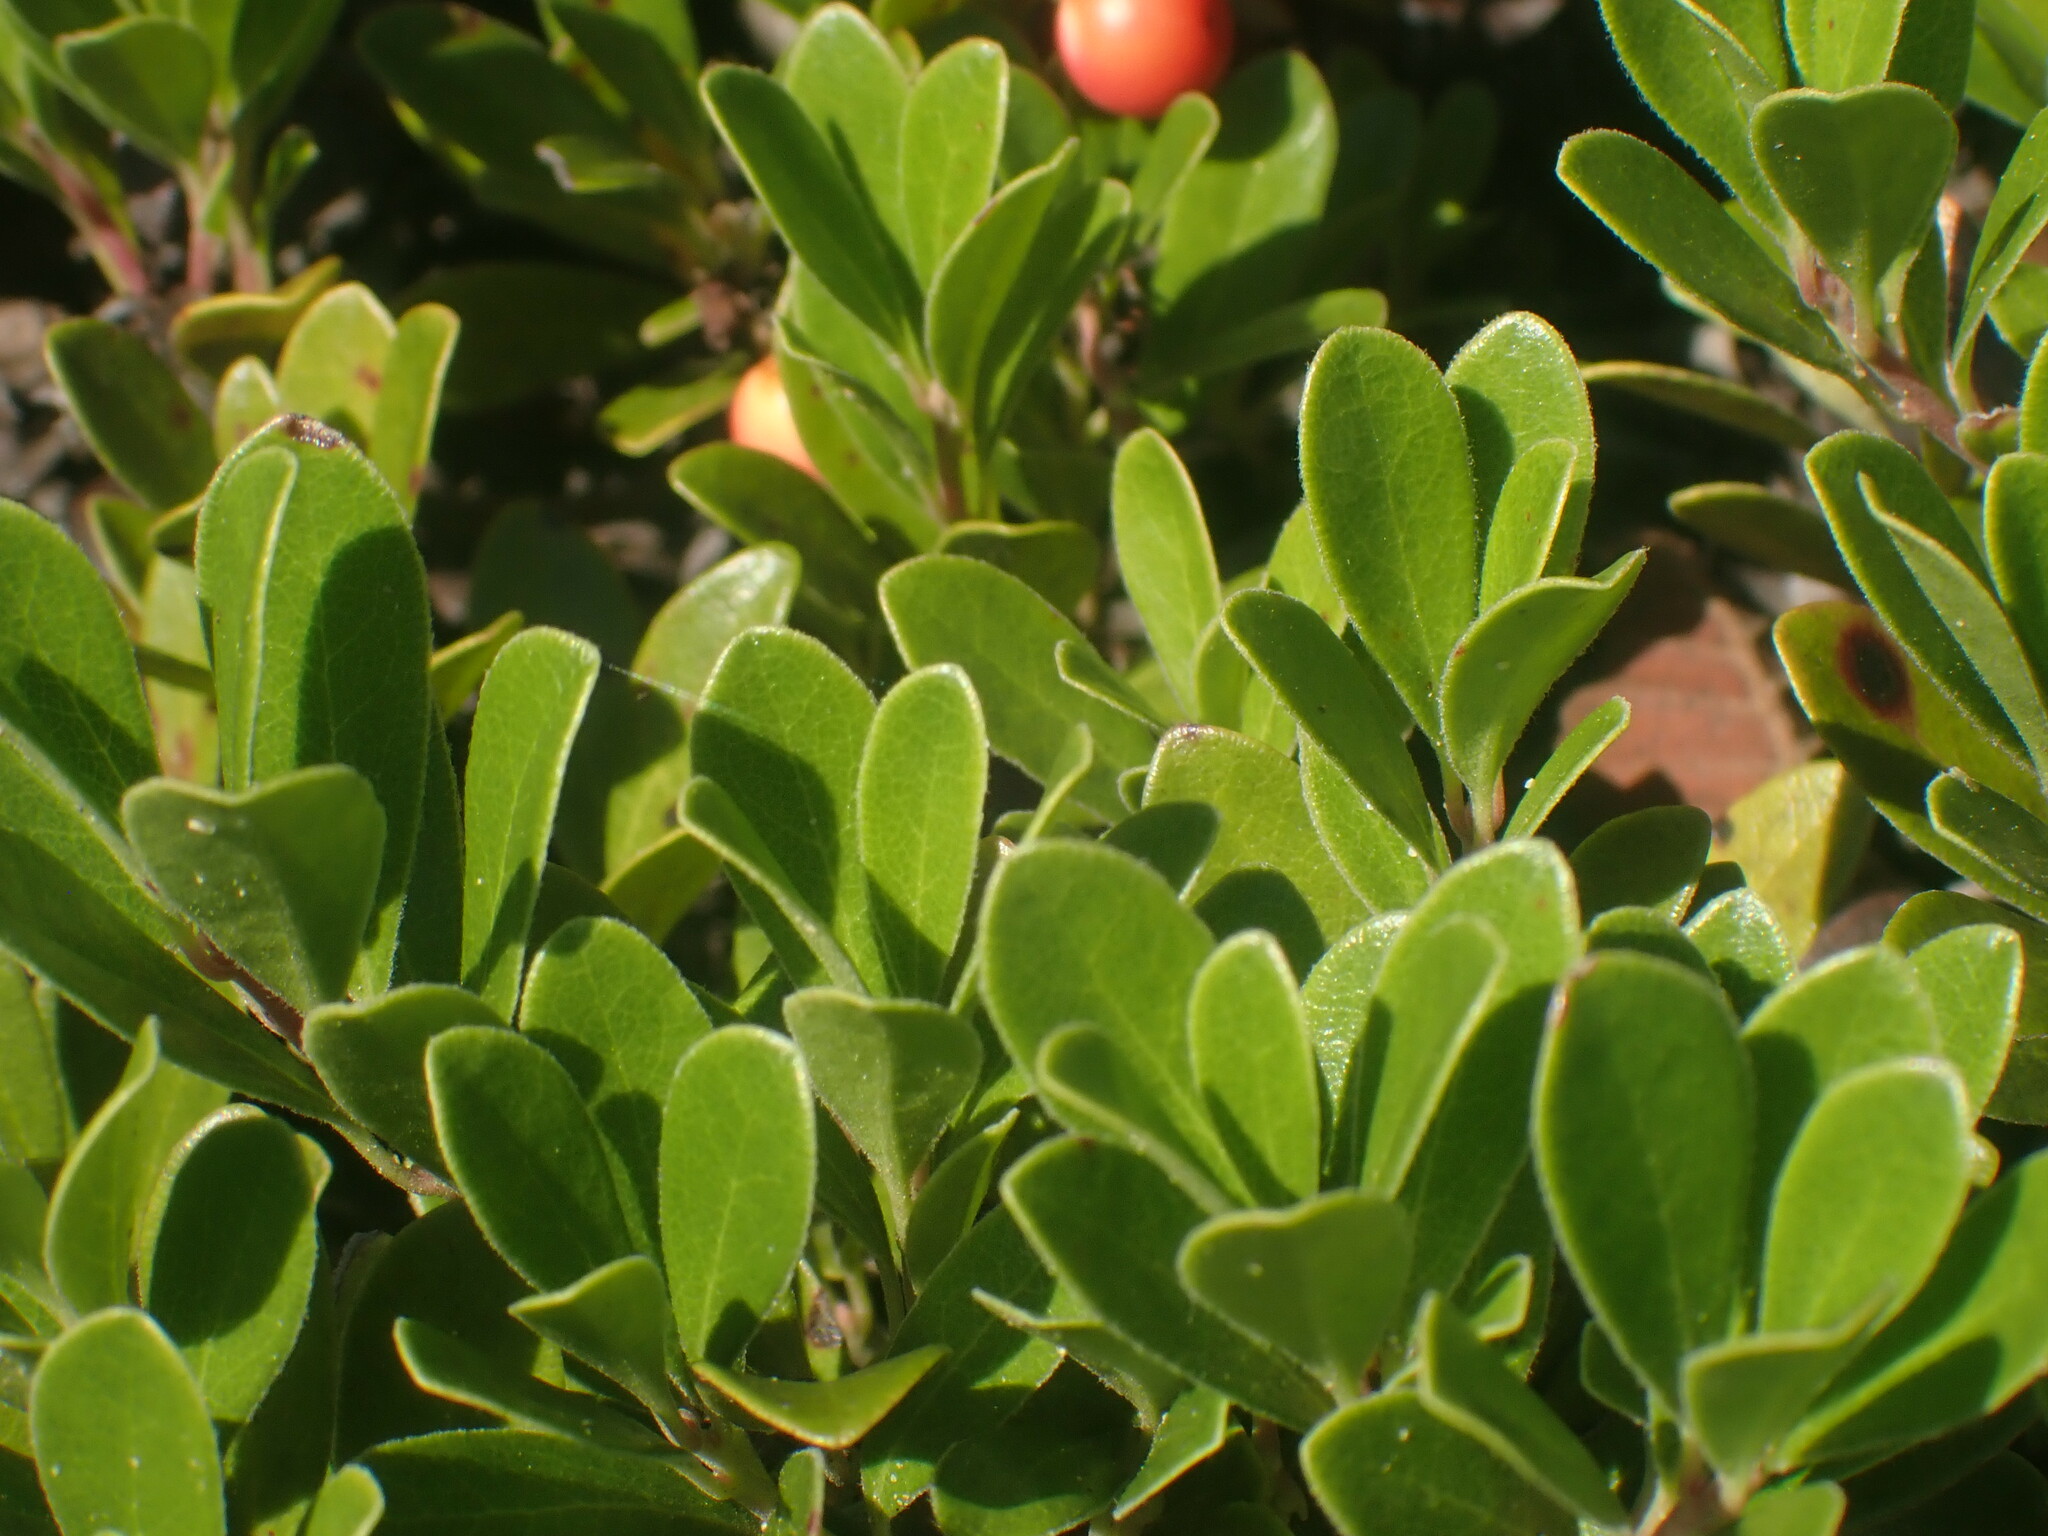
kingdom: Plantae
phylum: Tracheophyta
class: Magnoliopsida
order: Ericales
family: Ericaceae
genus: Arctostaphylos
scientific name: Arctostaphylos uva-ursi
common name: Bearberry
